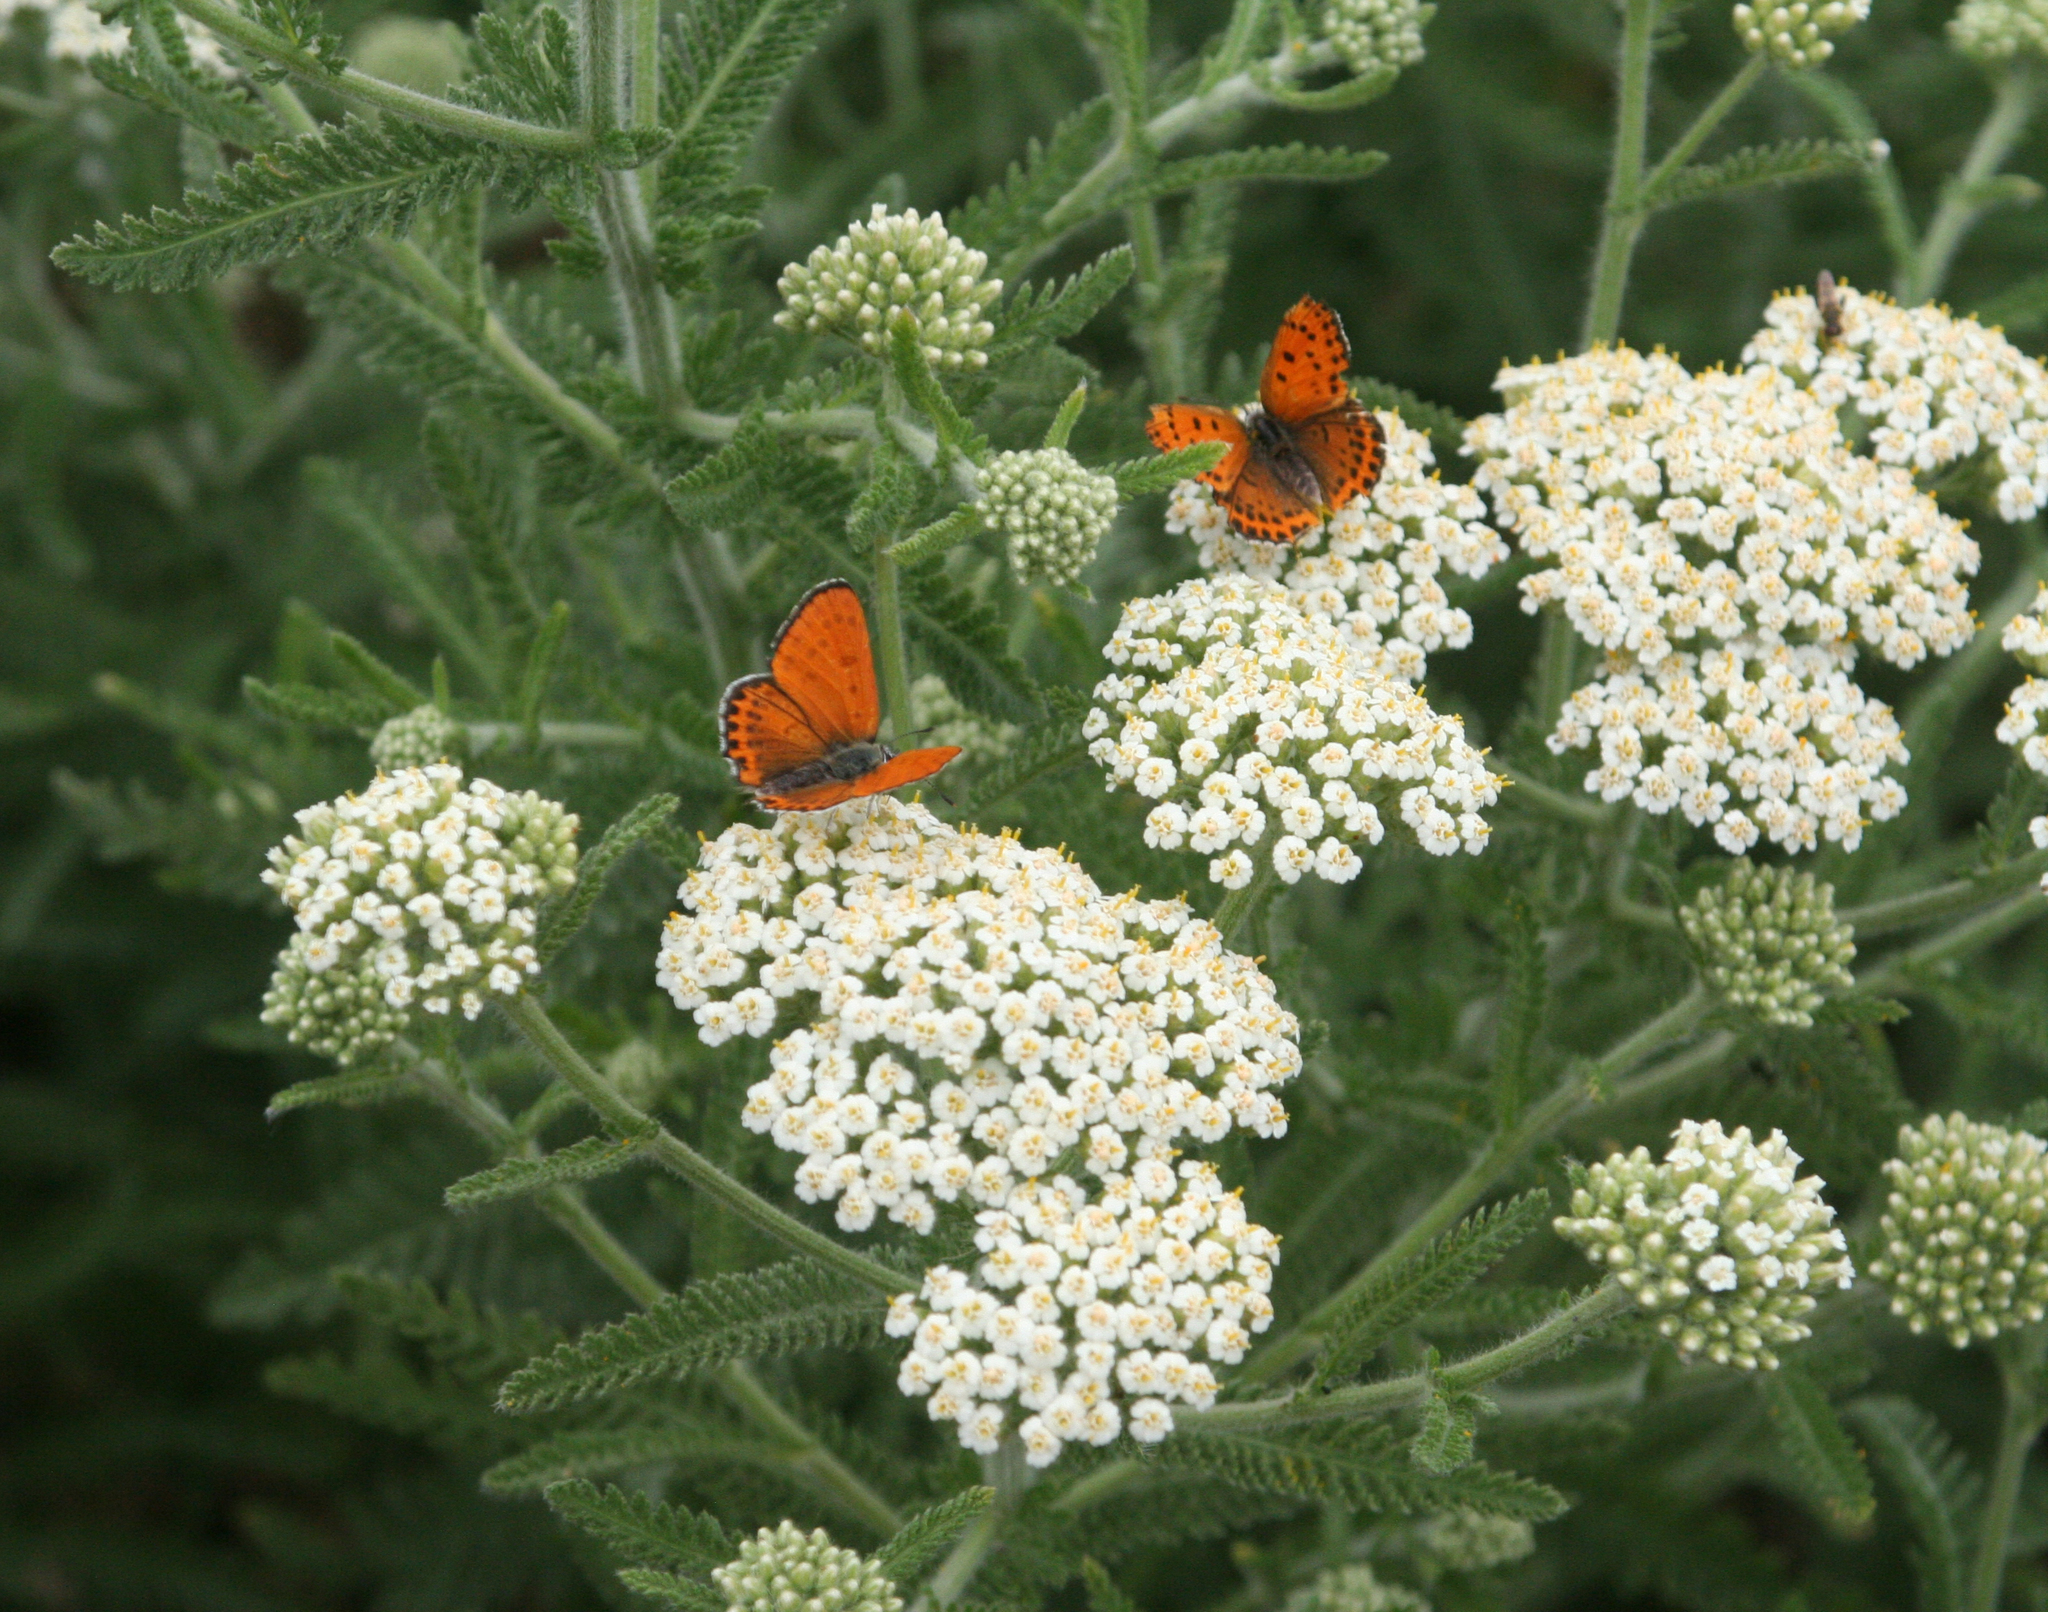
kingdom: Animalia
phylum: Arthropoda
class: Insecta
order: Lepidoptera
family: Lycaenidae
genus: Thersamonia
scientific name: Thersamonia thersamon
